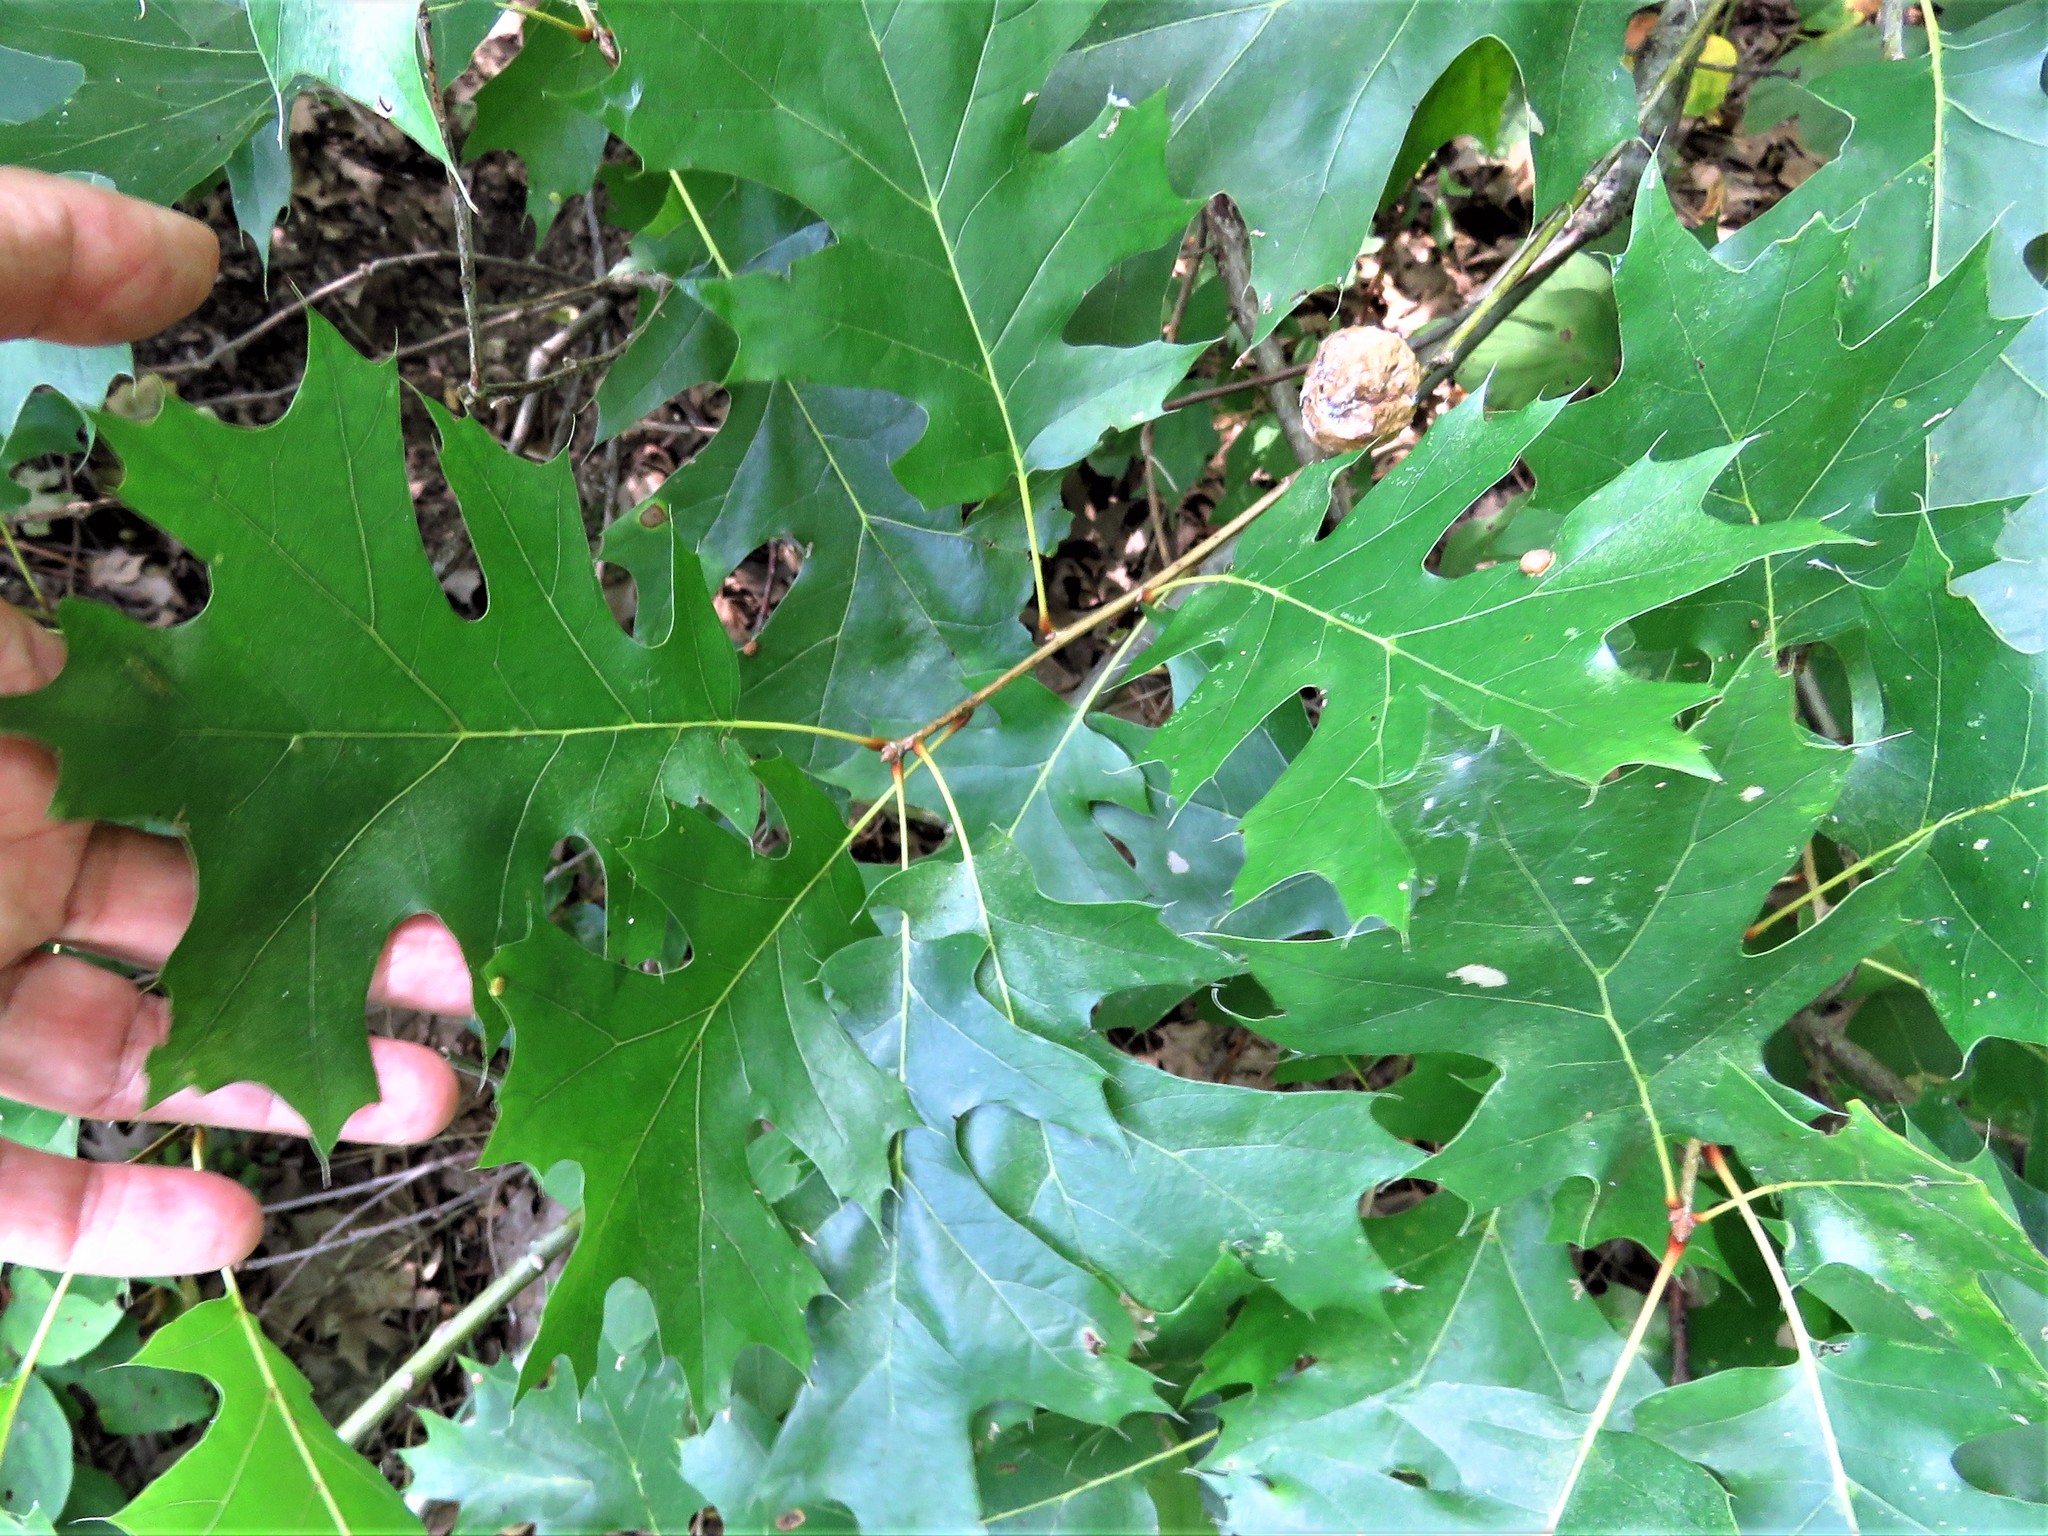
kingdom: Plantae
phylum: Tracheophyta
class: Magnoliopsida
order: Fagales
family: Fagaceae
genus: Quercus
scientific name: Quercus shumardii
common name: Shumard oak
